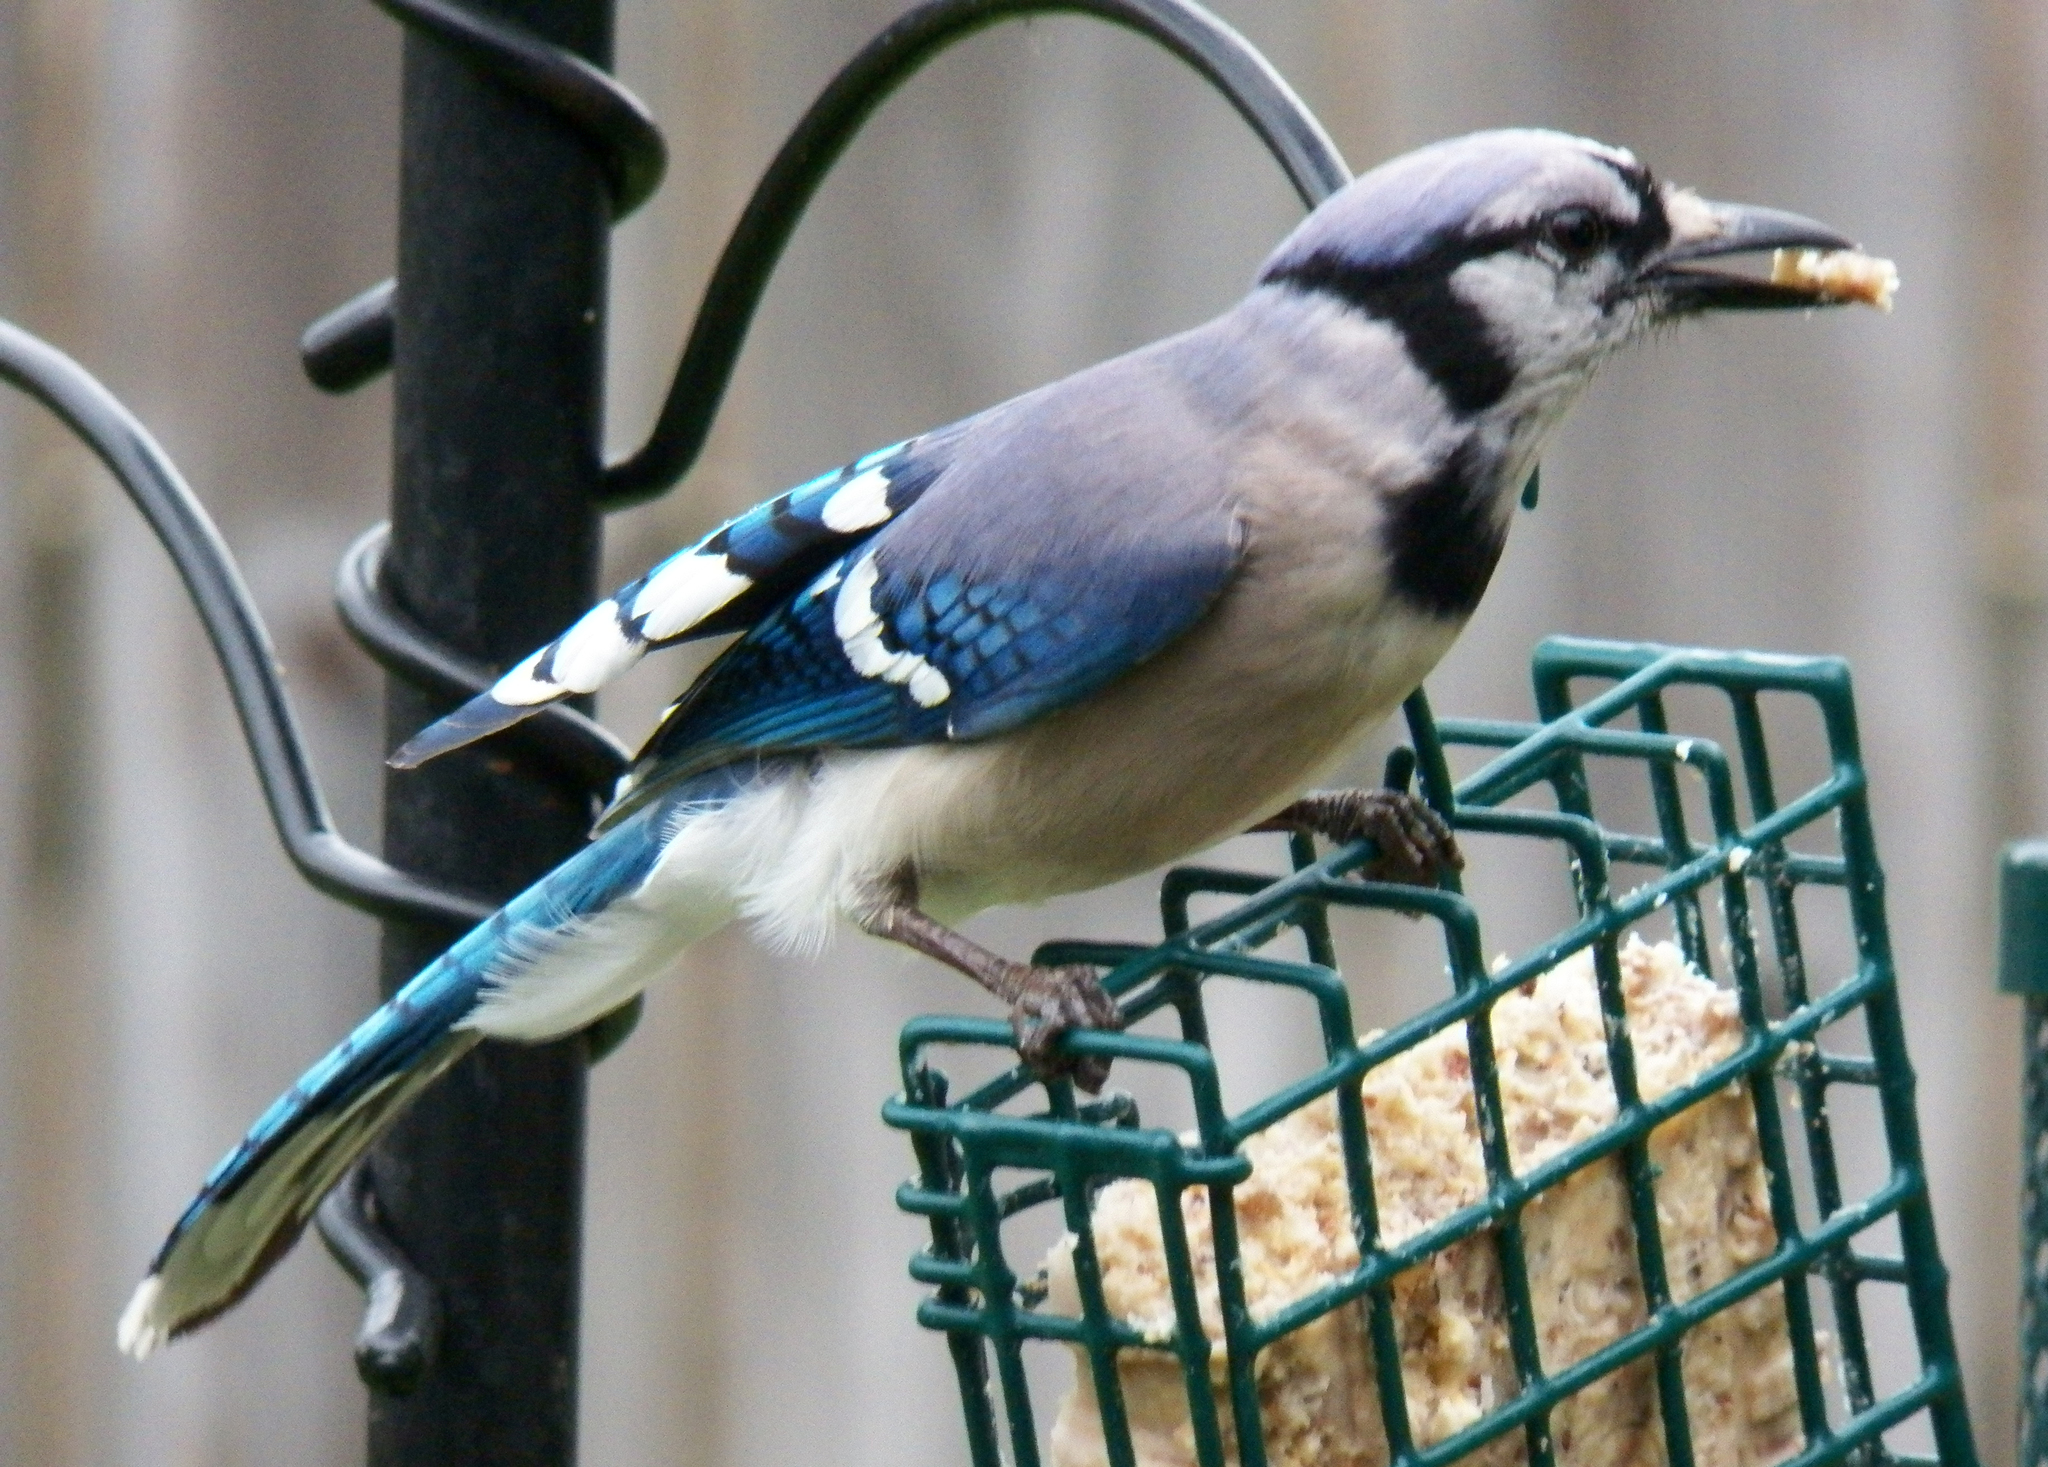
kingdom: Animalia
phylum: Chordata
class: Aves
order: Passeriformes
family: Corvidae
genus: Cyanocitta
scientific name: Cyanocitta cristata
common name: Blue jay
